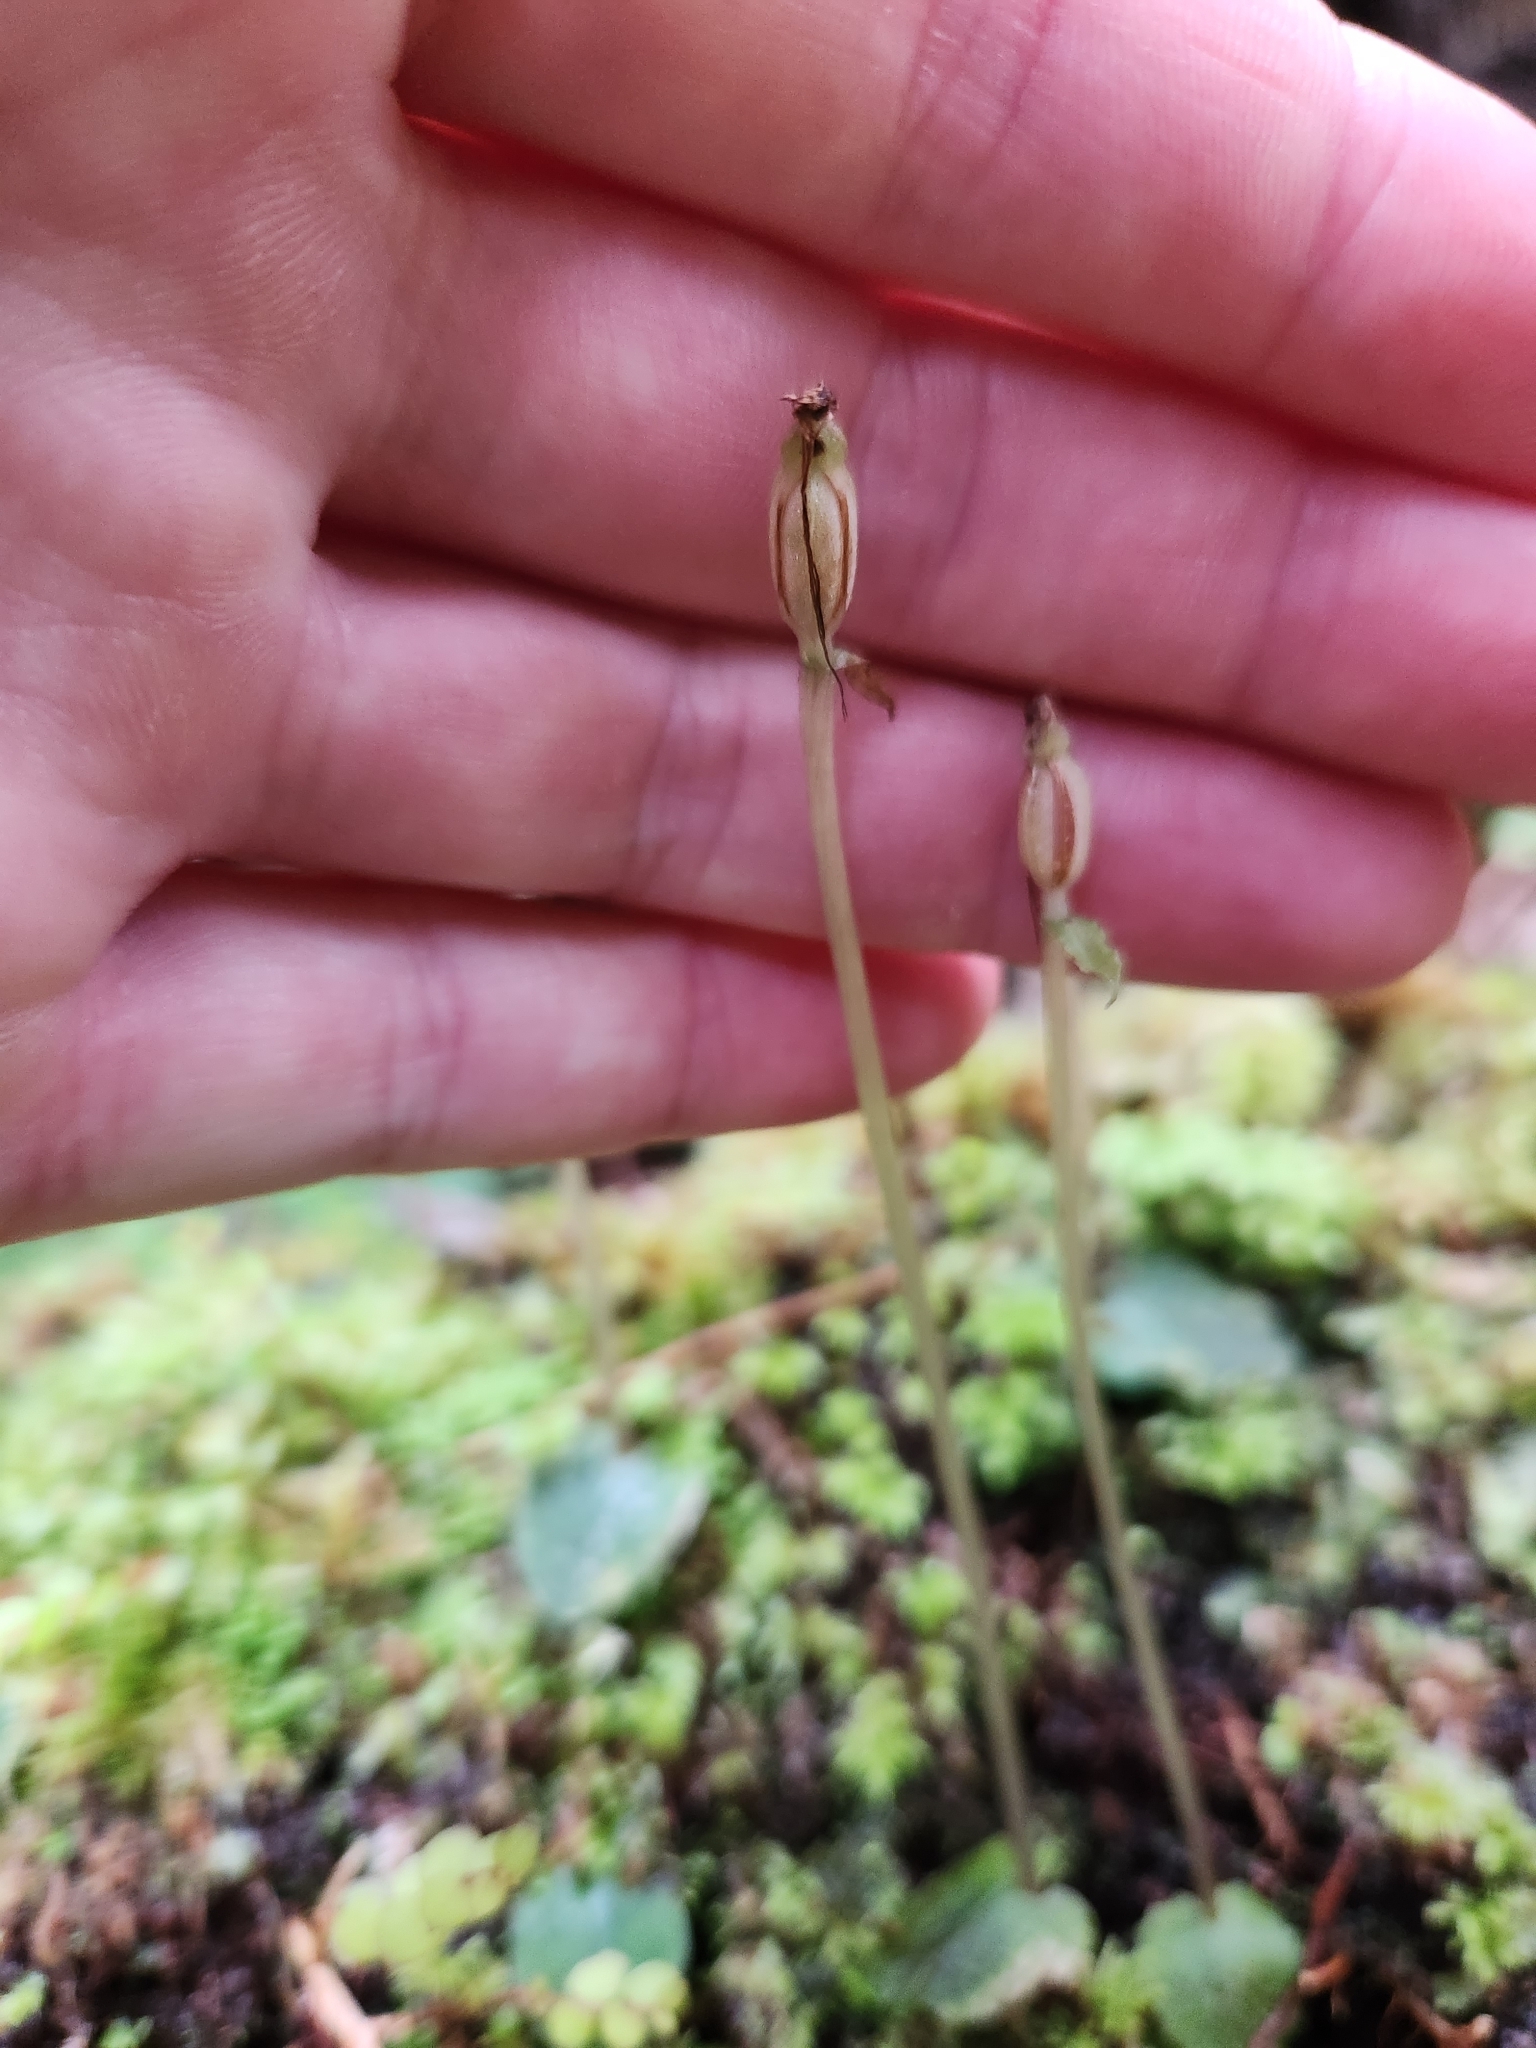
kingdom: Plantae
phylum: Tracheophyta
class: Liliopsida
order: Asparagales
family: Orchidaceae
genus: Corybas
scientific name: Corybas oblongus
